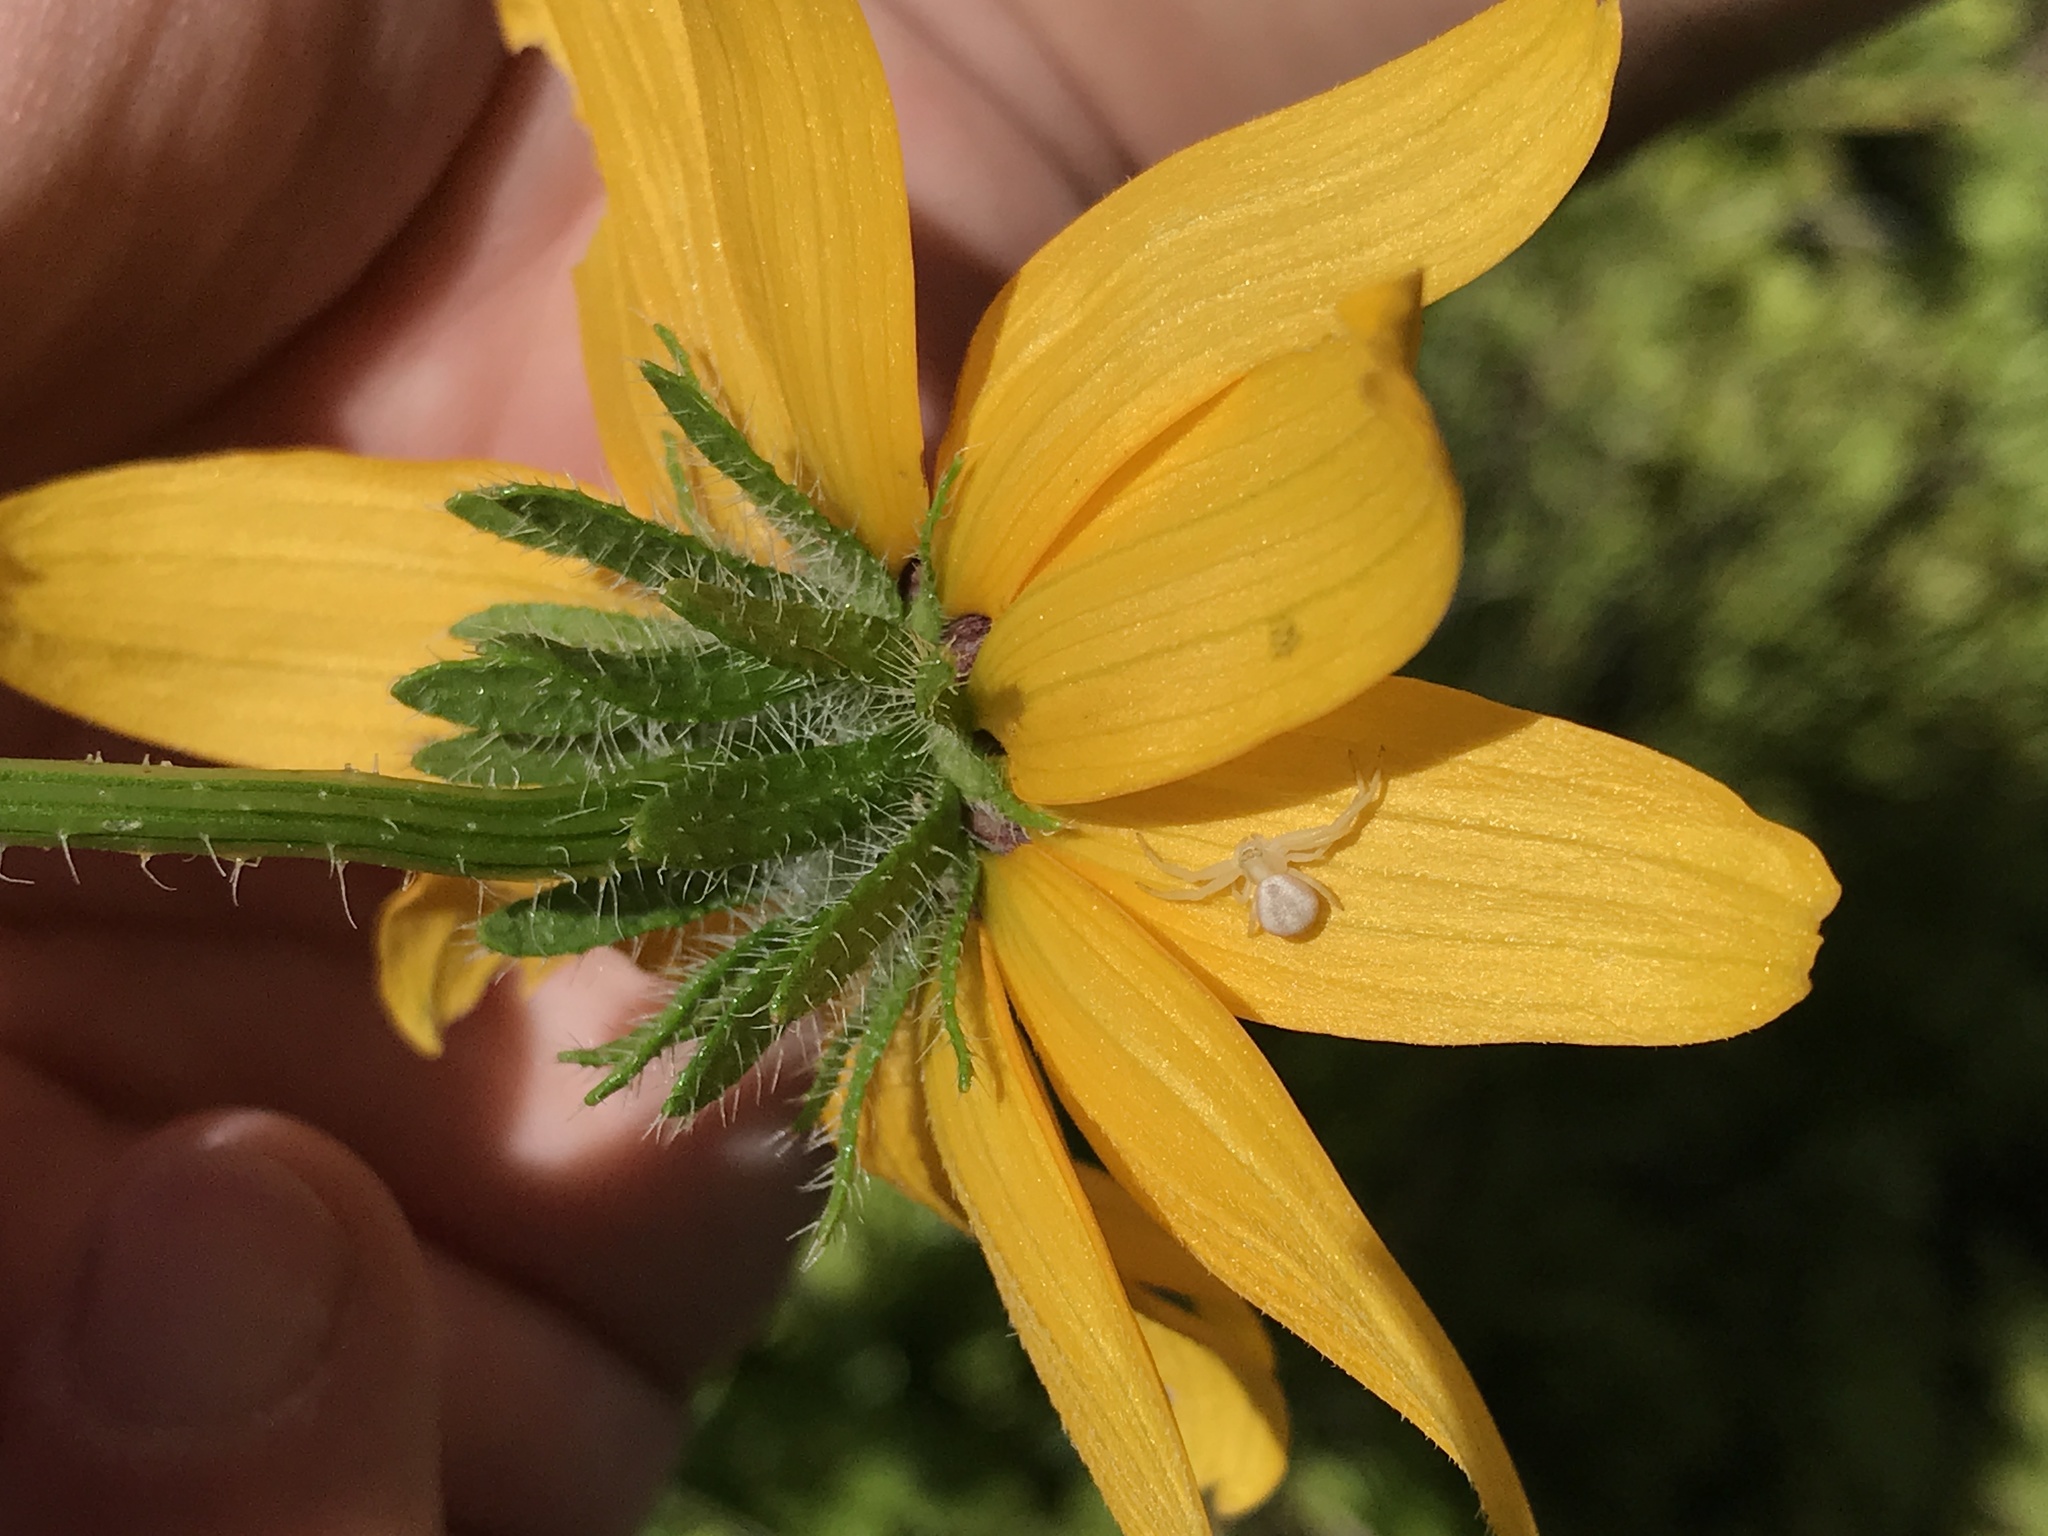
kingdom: Animalia
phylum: Arthropoda
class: Arachnida
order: Araneae
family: Thomisidae
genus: Misumena
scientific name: Misumena vatia
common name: Goldenrod crab spider
